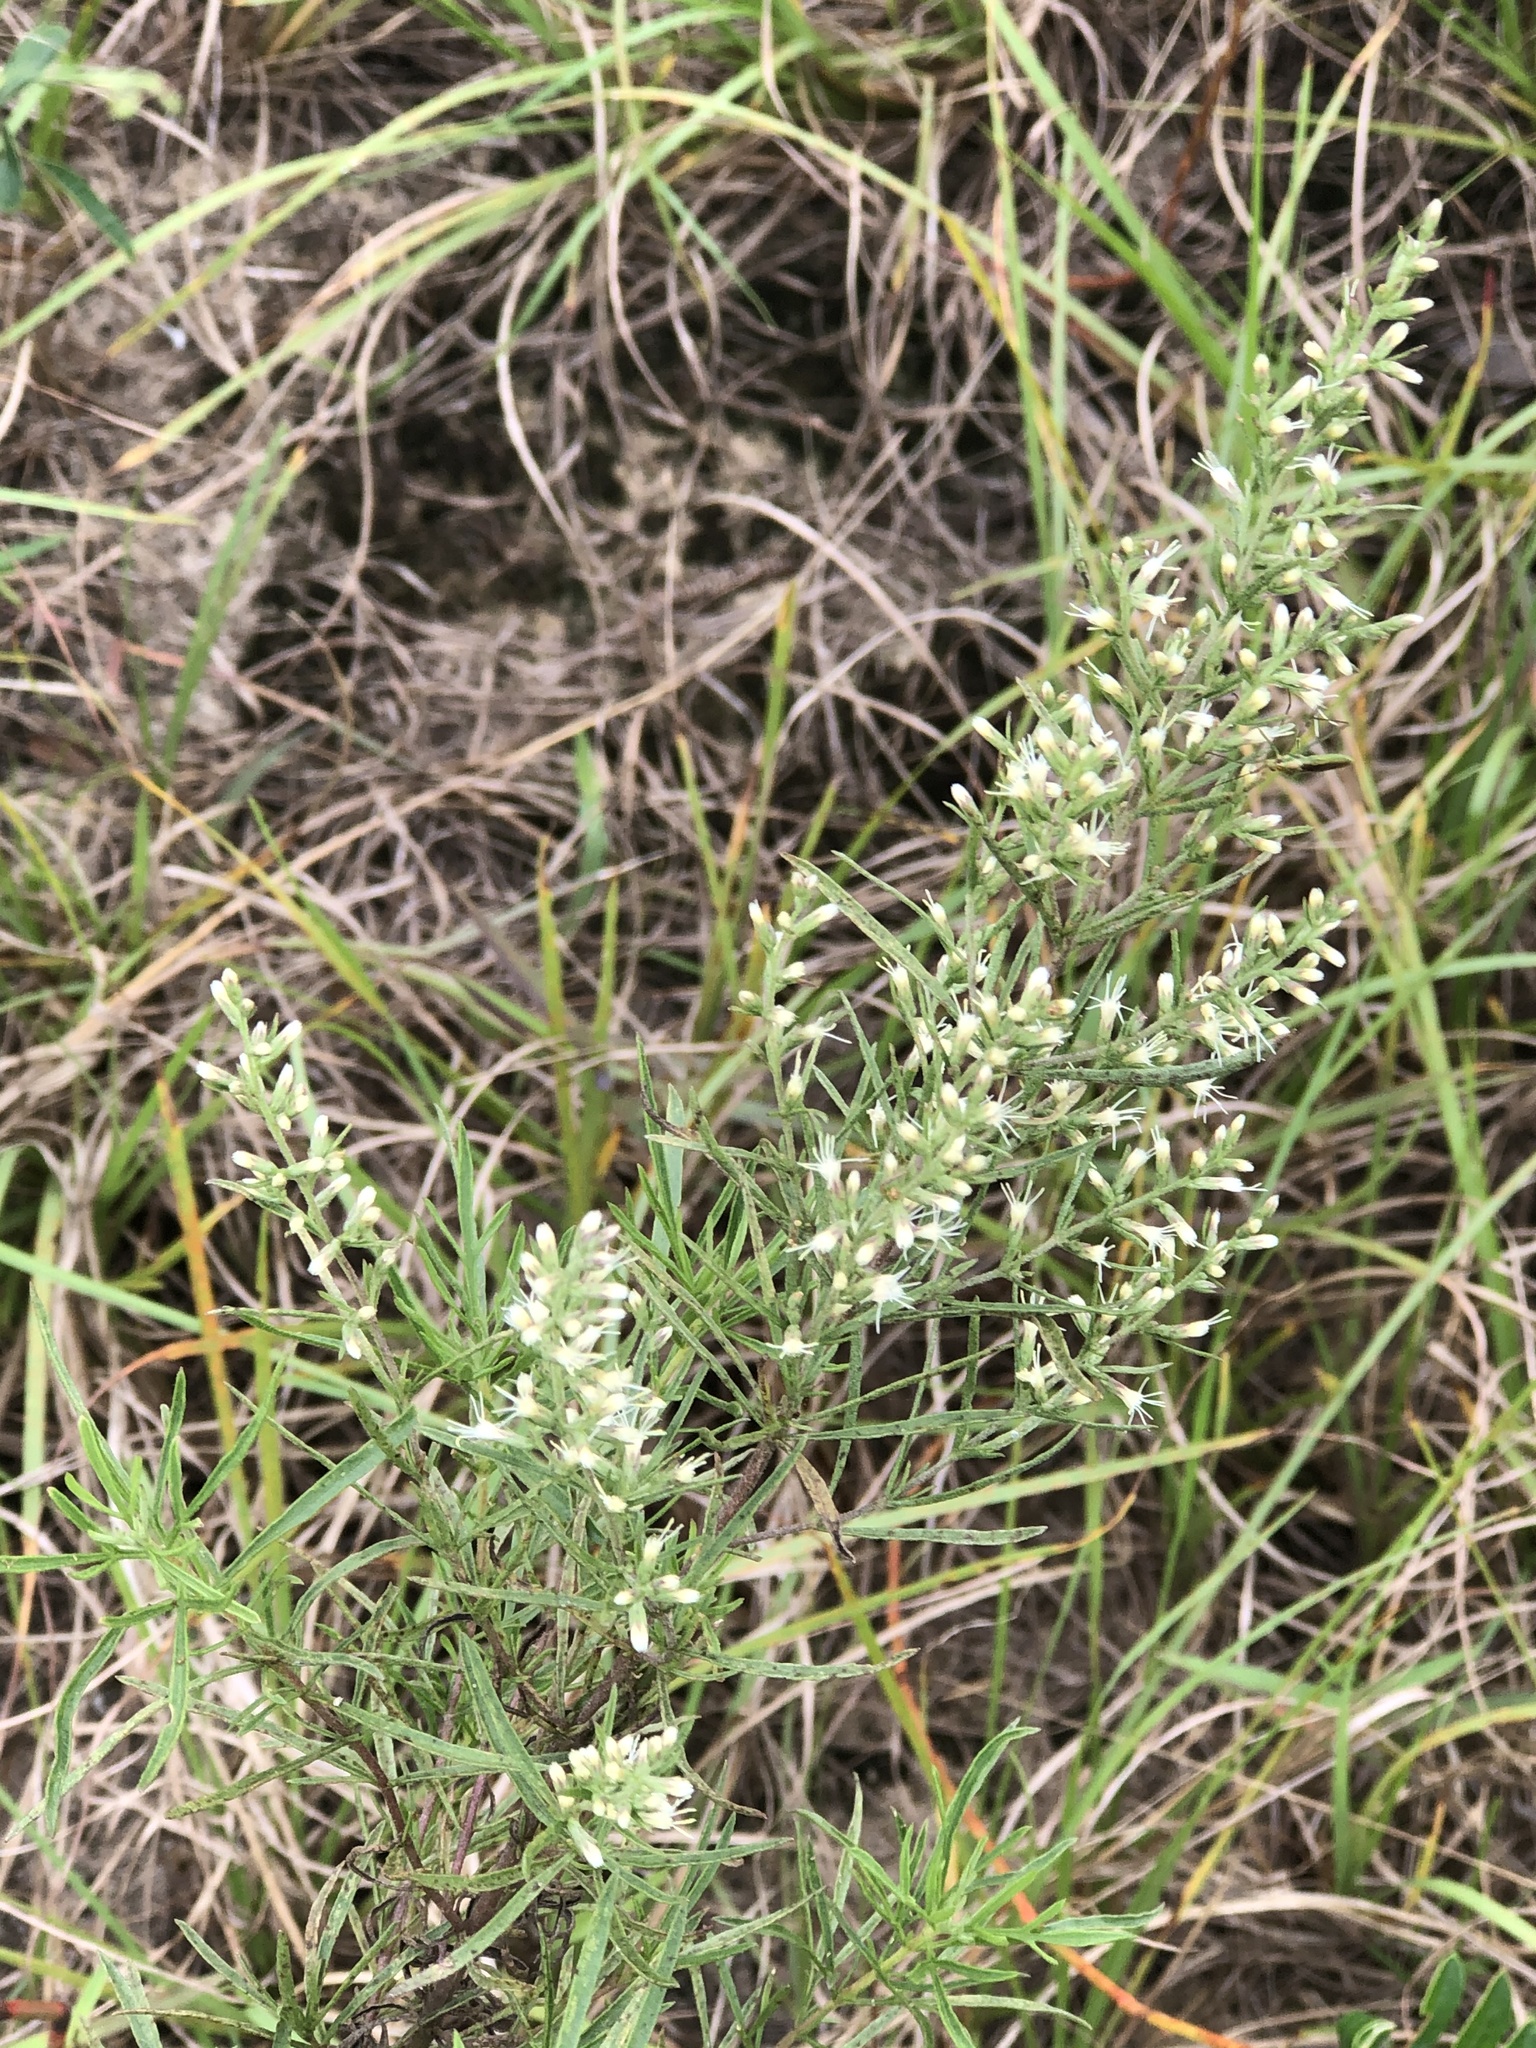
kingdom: Plantae
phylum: Tracheophyta
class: Magnoliopsida
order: Asterales
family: Asteraceae
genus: Eupatorium
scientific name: Eupatorium compositifolium
